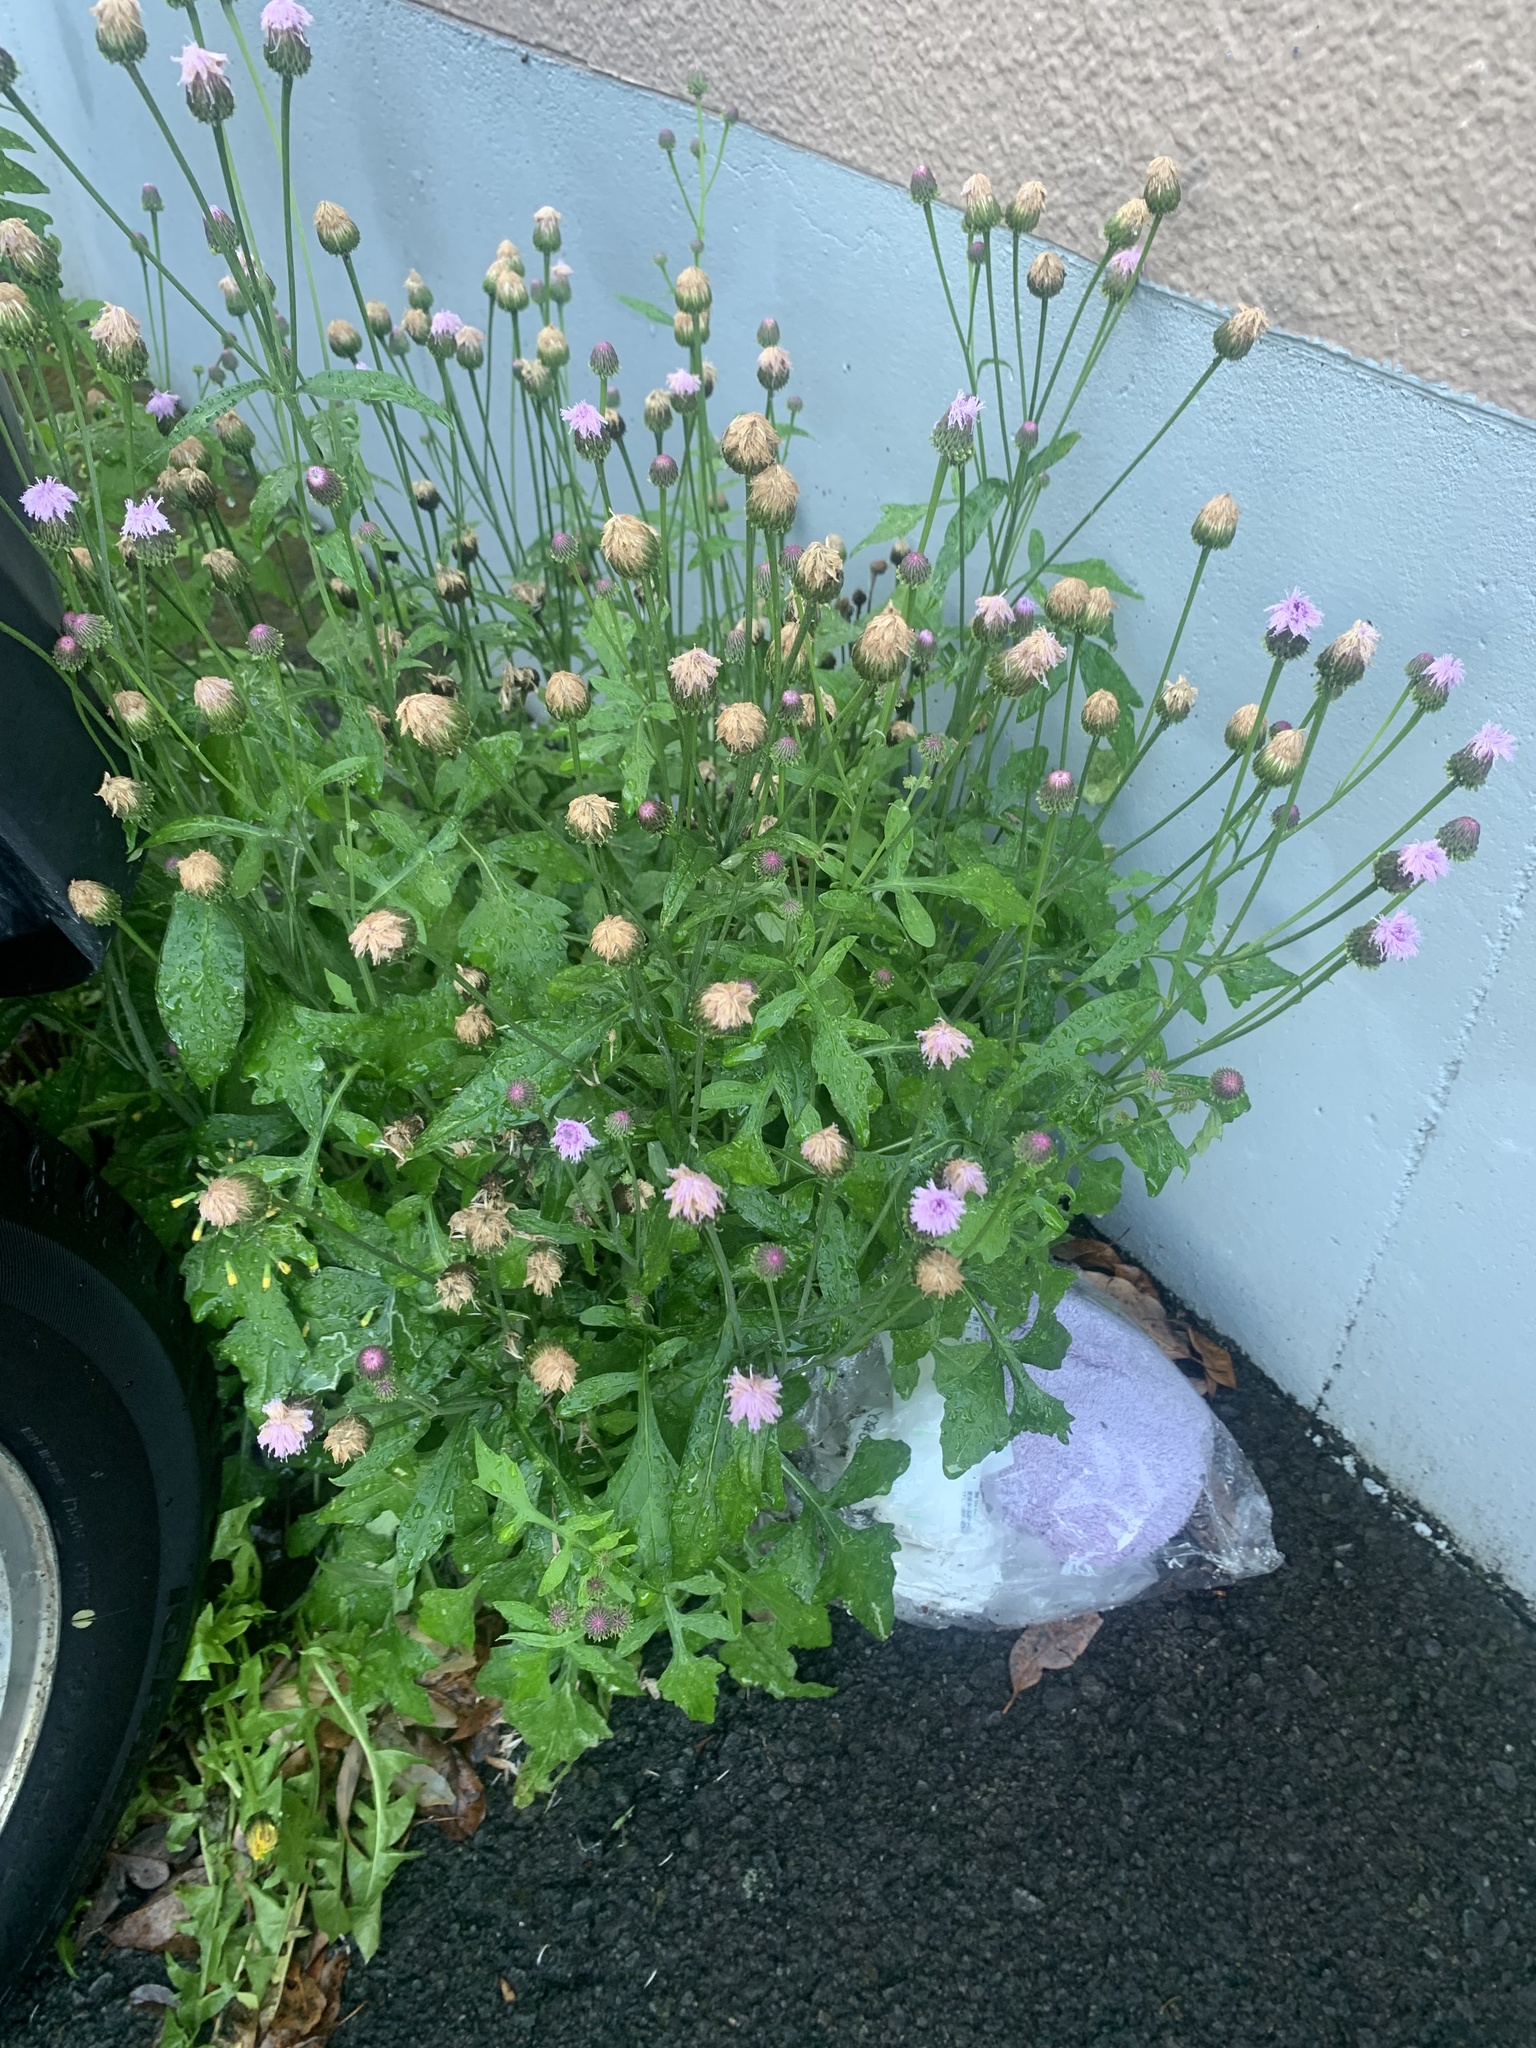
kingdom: Plantae
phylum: Tracheophyta
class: Magnoliopsida
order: Asterales
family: Asteraceae
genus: Saussurea
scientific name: Saussurea lyrata
